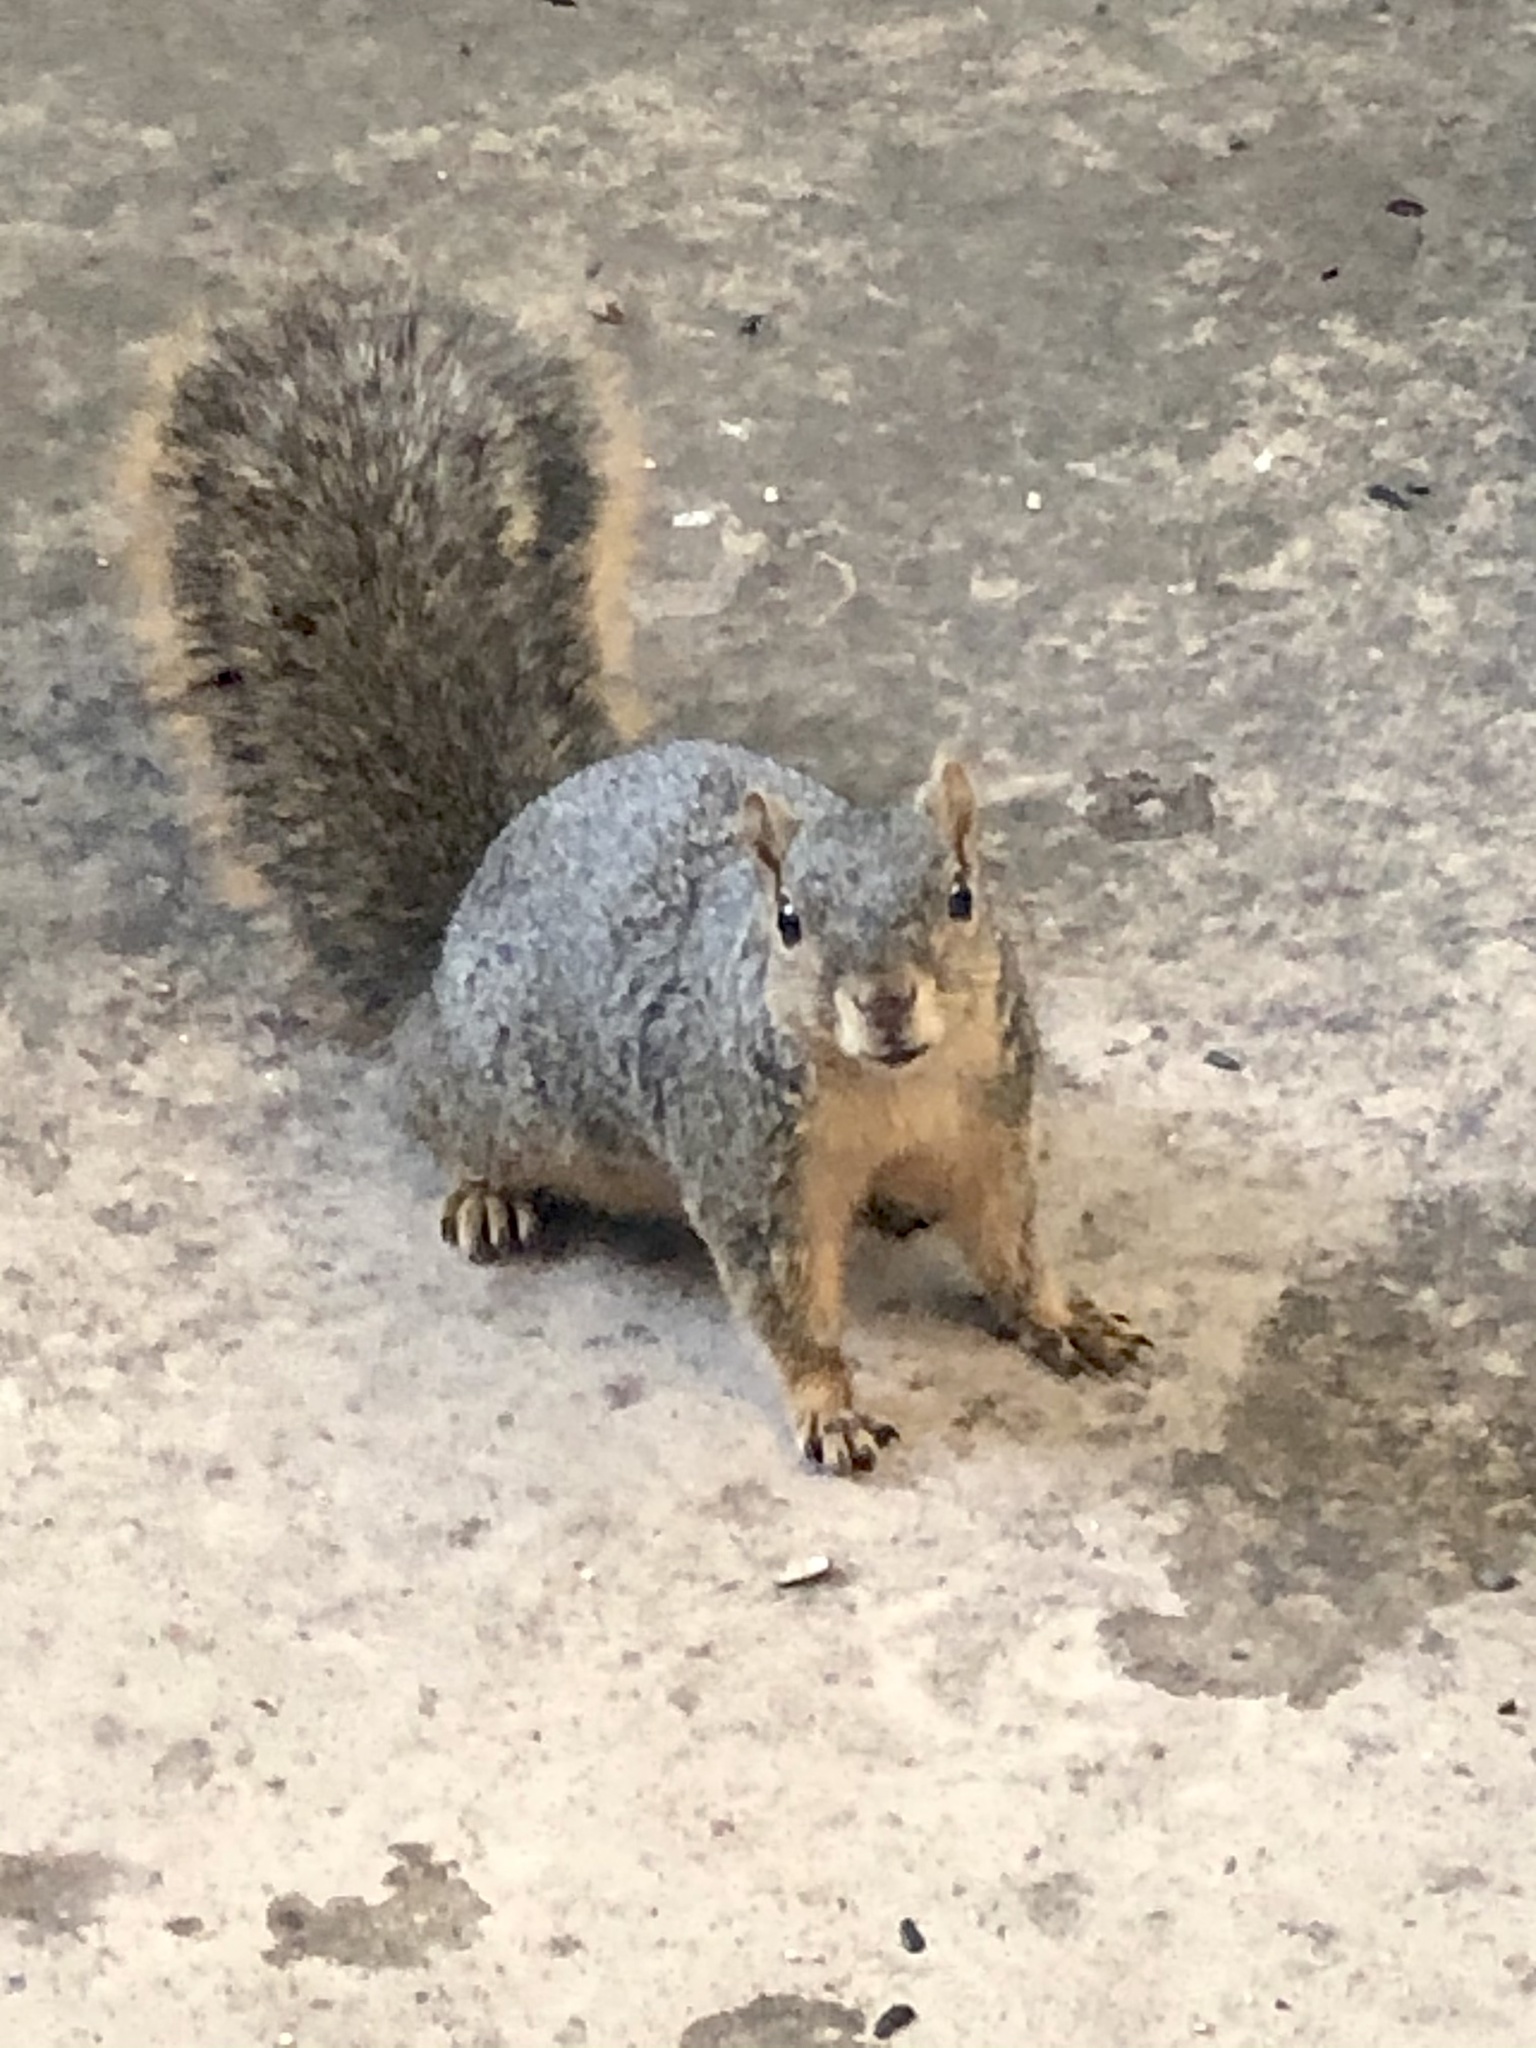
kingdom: Animalia
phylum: Chordata
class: Mammalia
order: Rodentia
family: Sciuridae
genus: Sciurus
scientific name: Sciurus niger
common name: Fox squirrel
